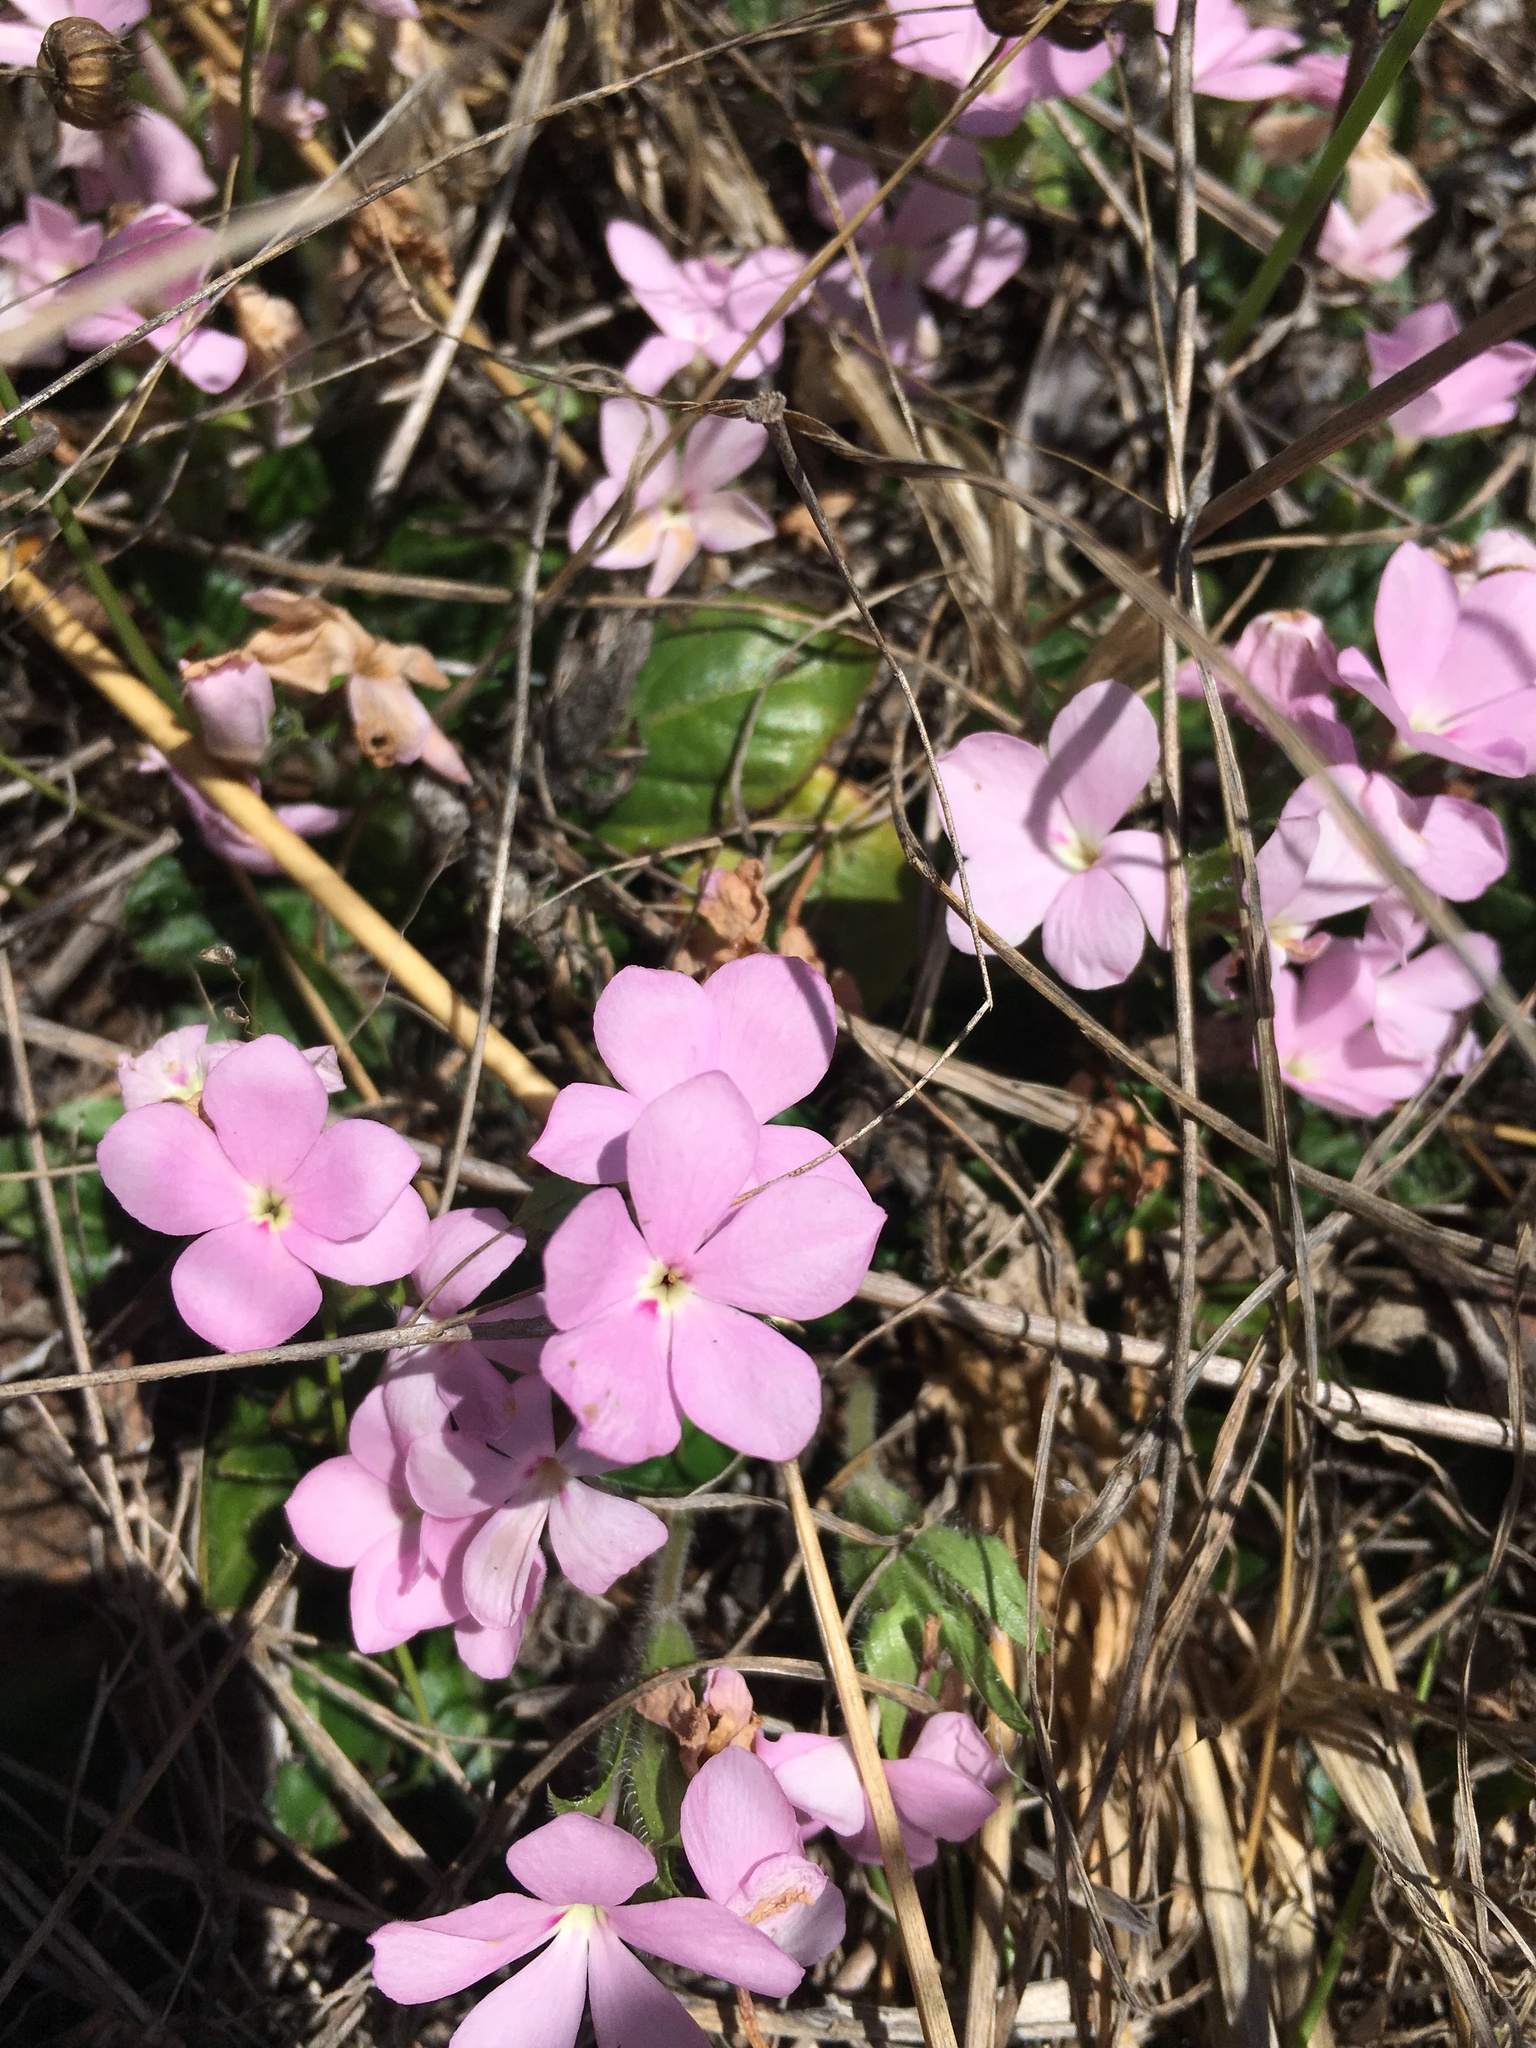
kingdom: Plantae
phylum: Tracheophyta
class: Magnoliopsida
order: Lamiales
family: Acanthaceae
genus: Stenandrium
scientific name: Stenandrium dulce
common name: Pinklet
